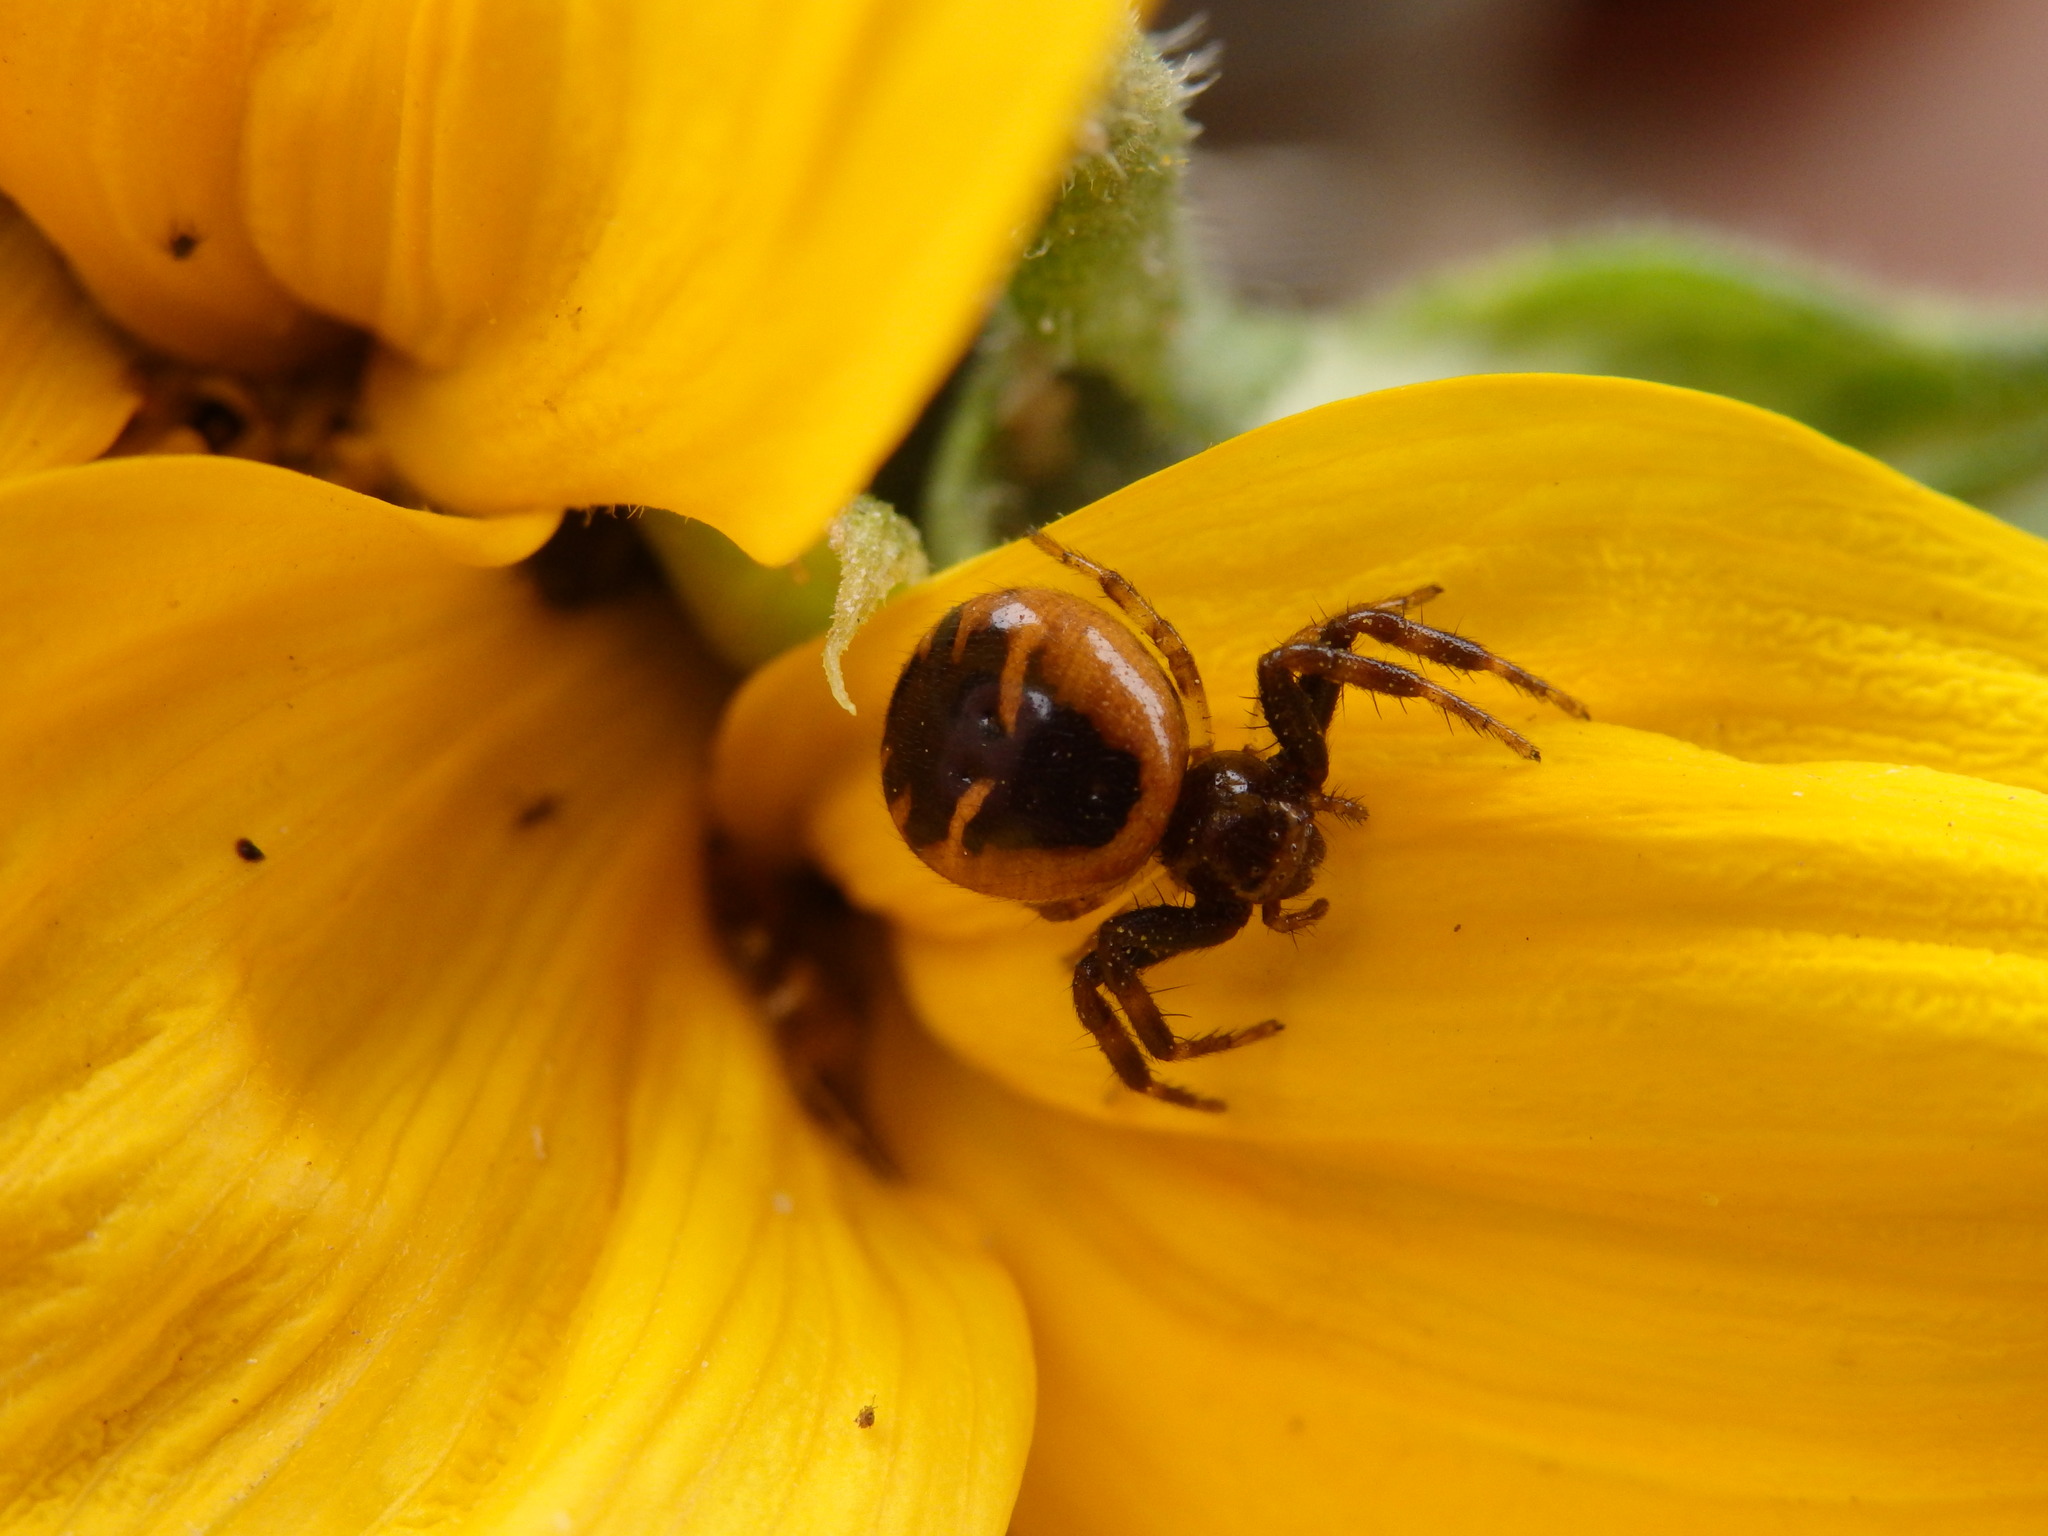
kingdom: Animalia
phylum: Arthropoda
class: Arachnida
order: Araneae
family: Thomisidae
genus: Synema
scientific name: Synema globosum
